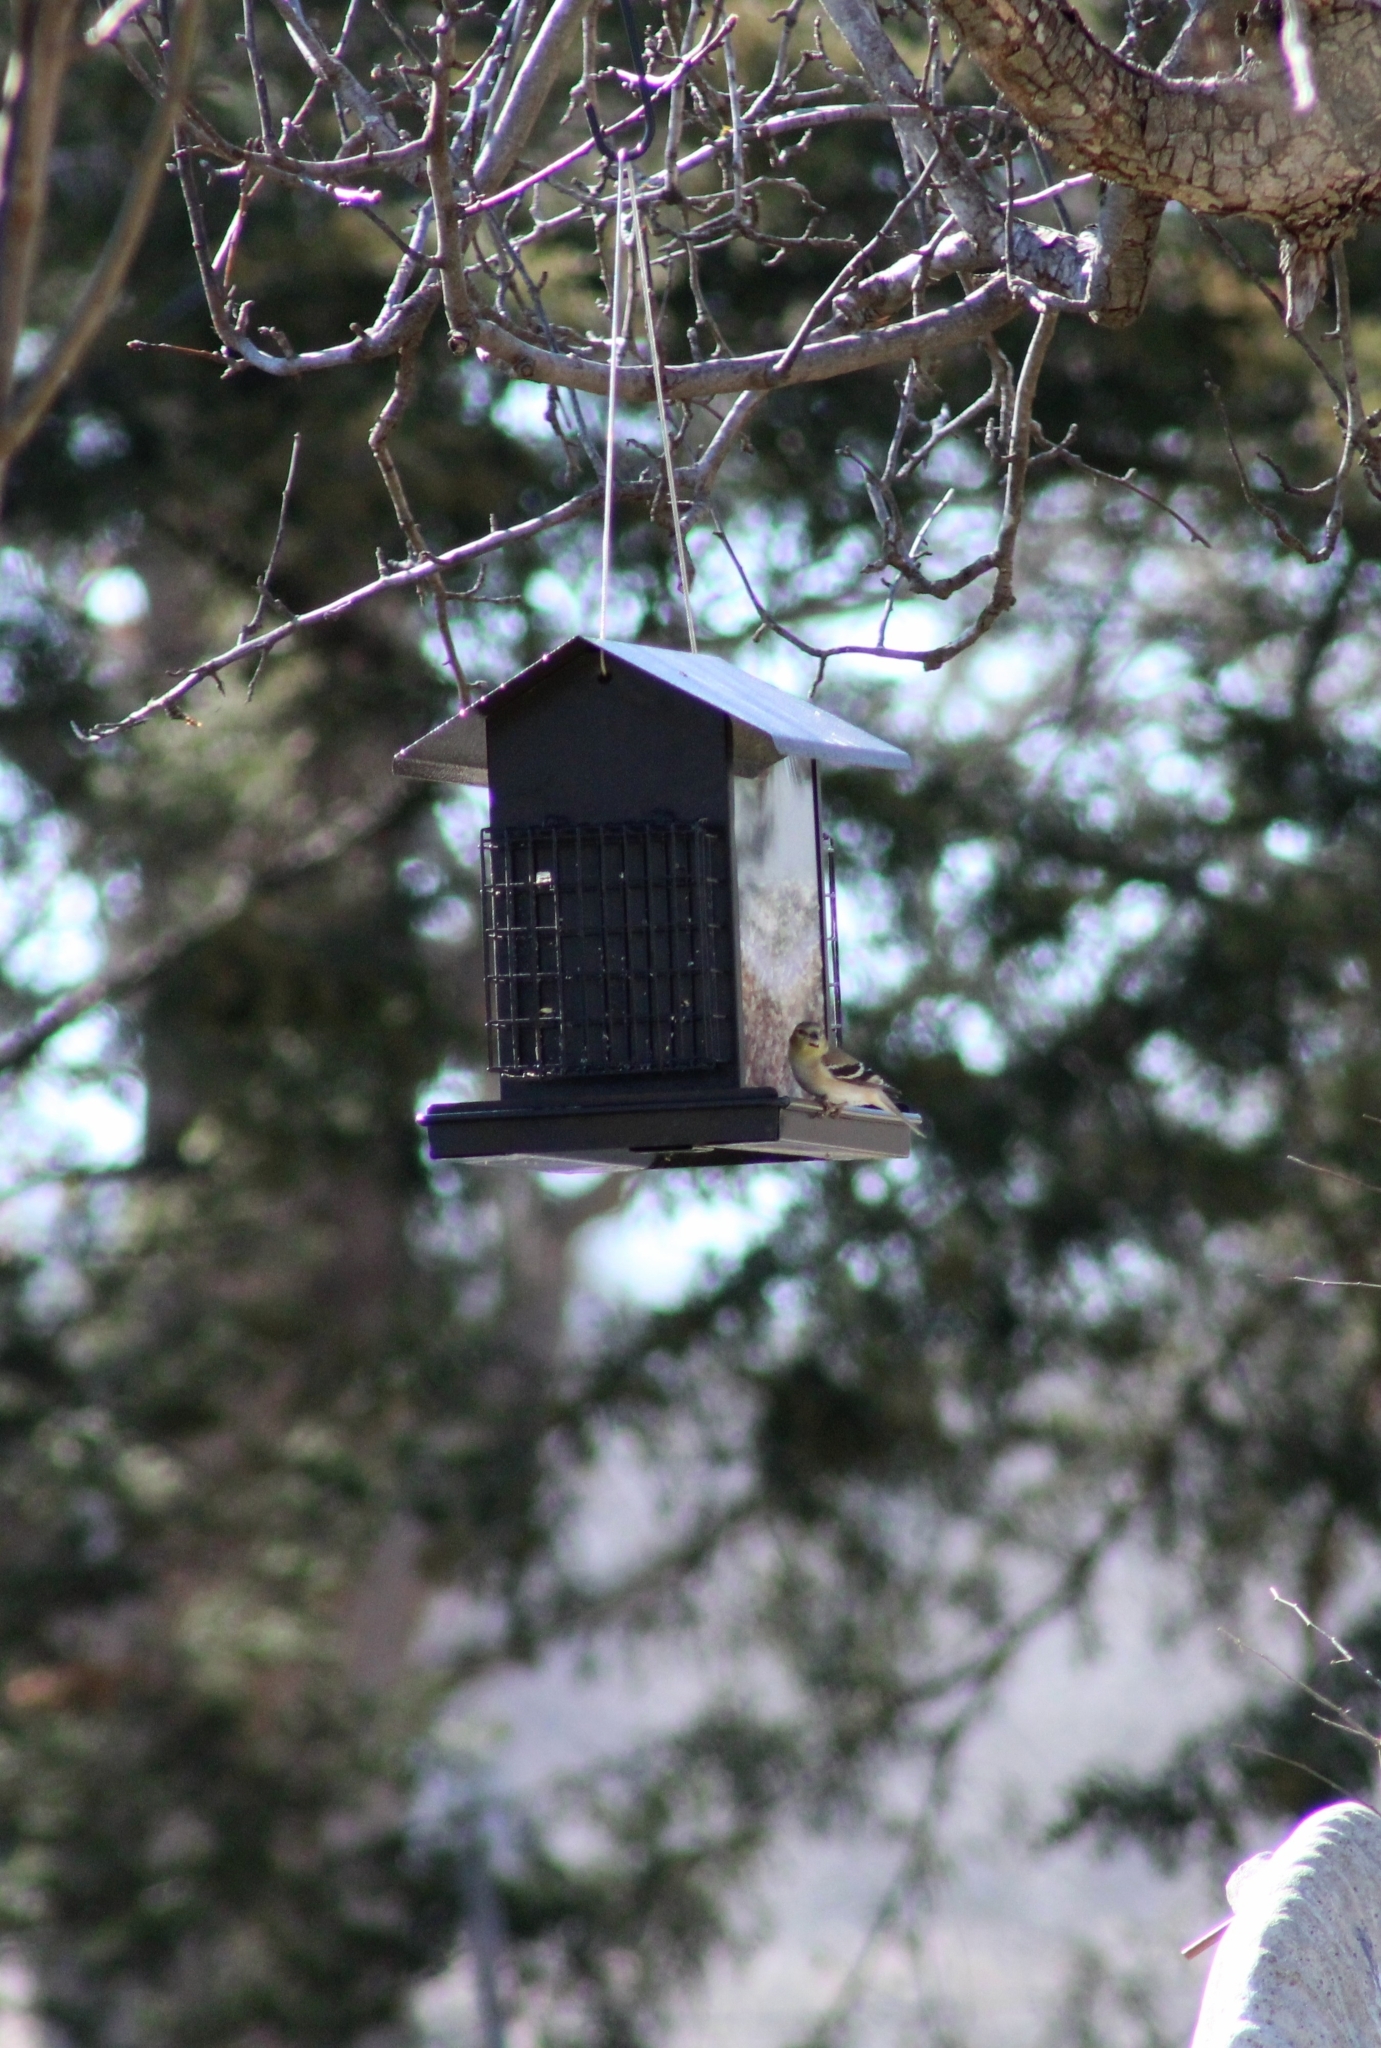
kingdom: Animalia
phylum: Chordata
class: Aves
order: Passeriformes
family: Fringillidae
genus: Spinus
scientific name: Spinus tristis
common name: American goldfinch
